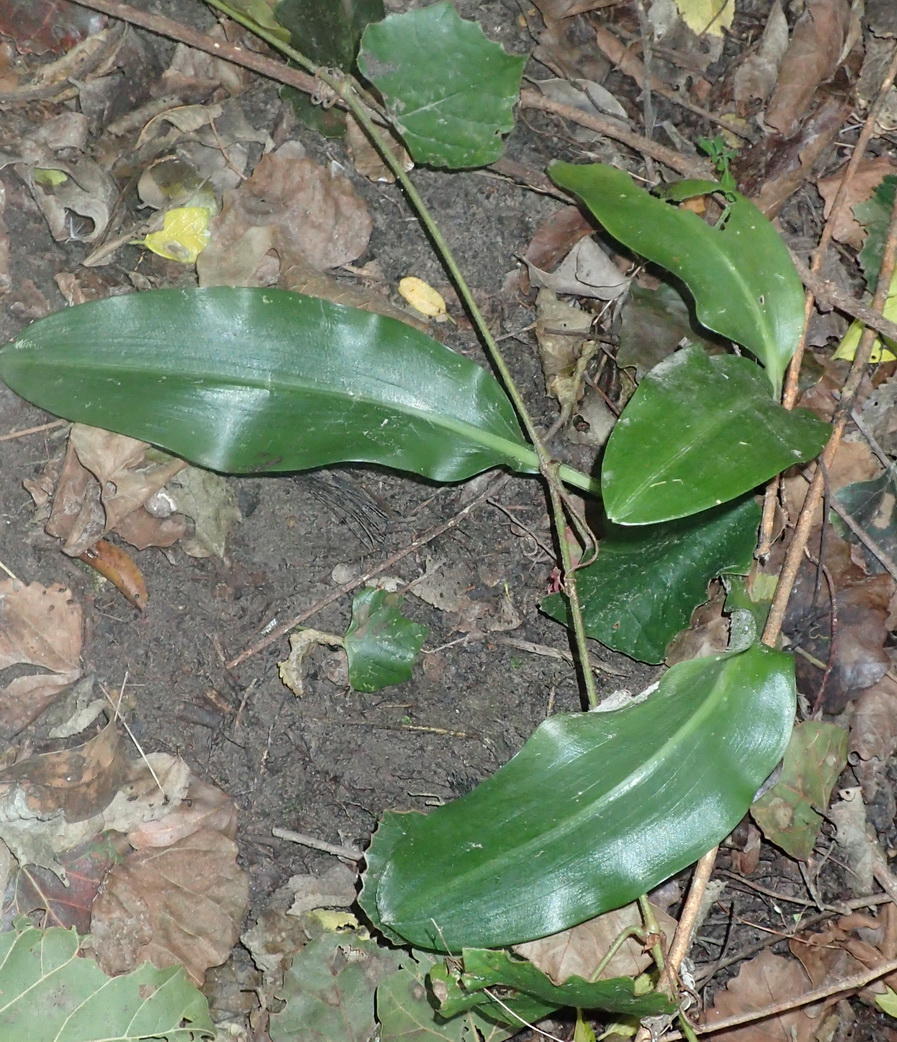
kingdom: Plantae
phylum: Tracheophyta
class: Liliopsida
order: Asparagales
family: Amaryllidaceae
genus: Scadoxus
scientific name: Scadoxus puniceus
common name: Royal-paintbrush
